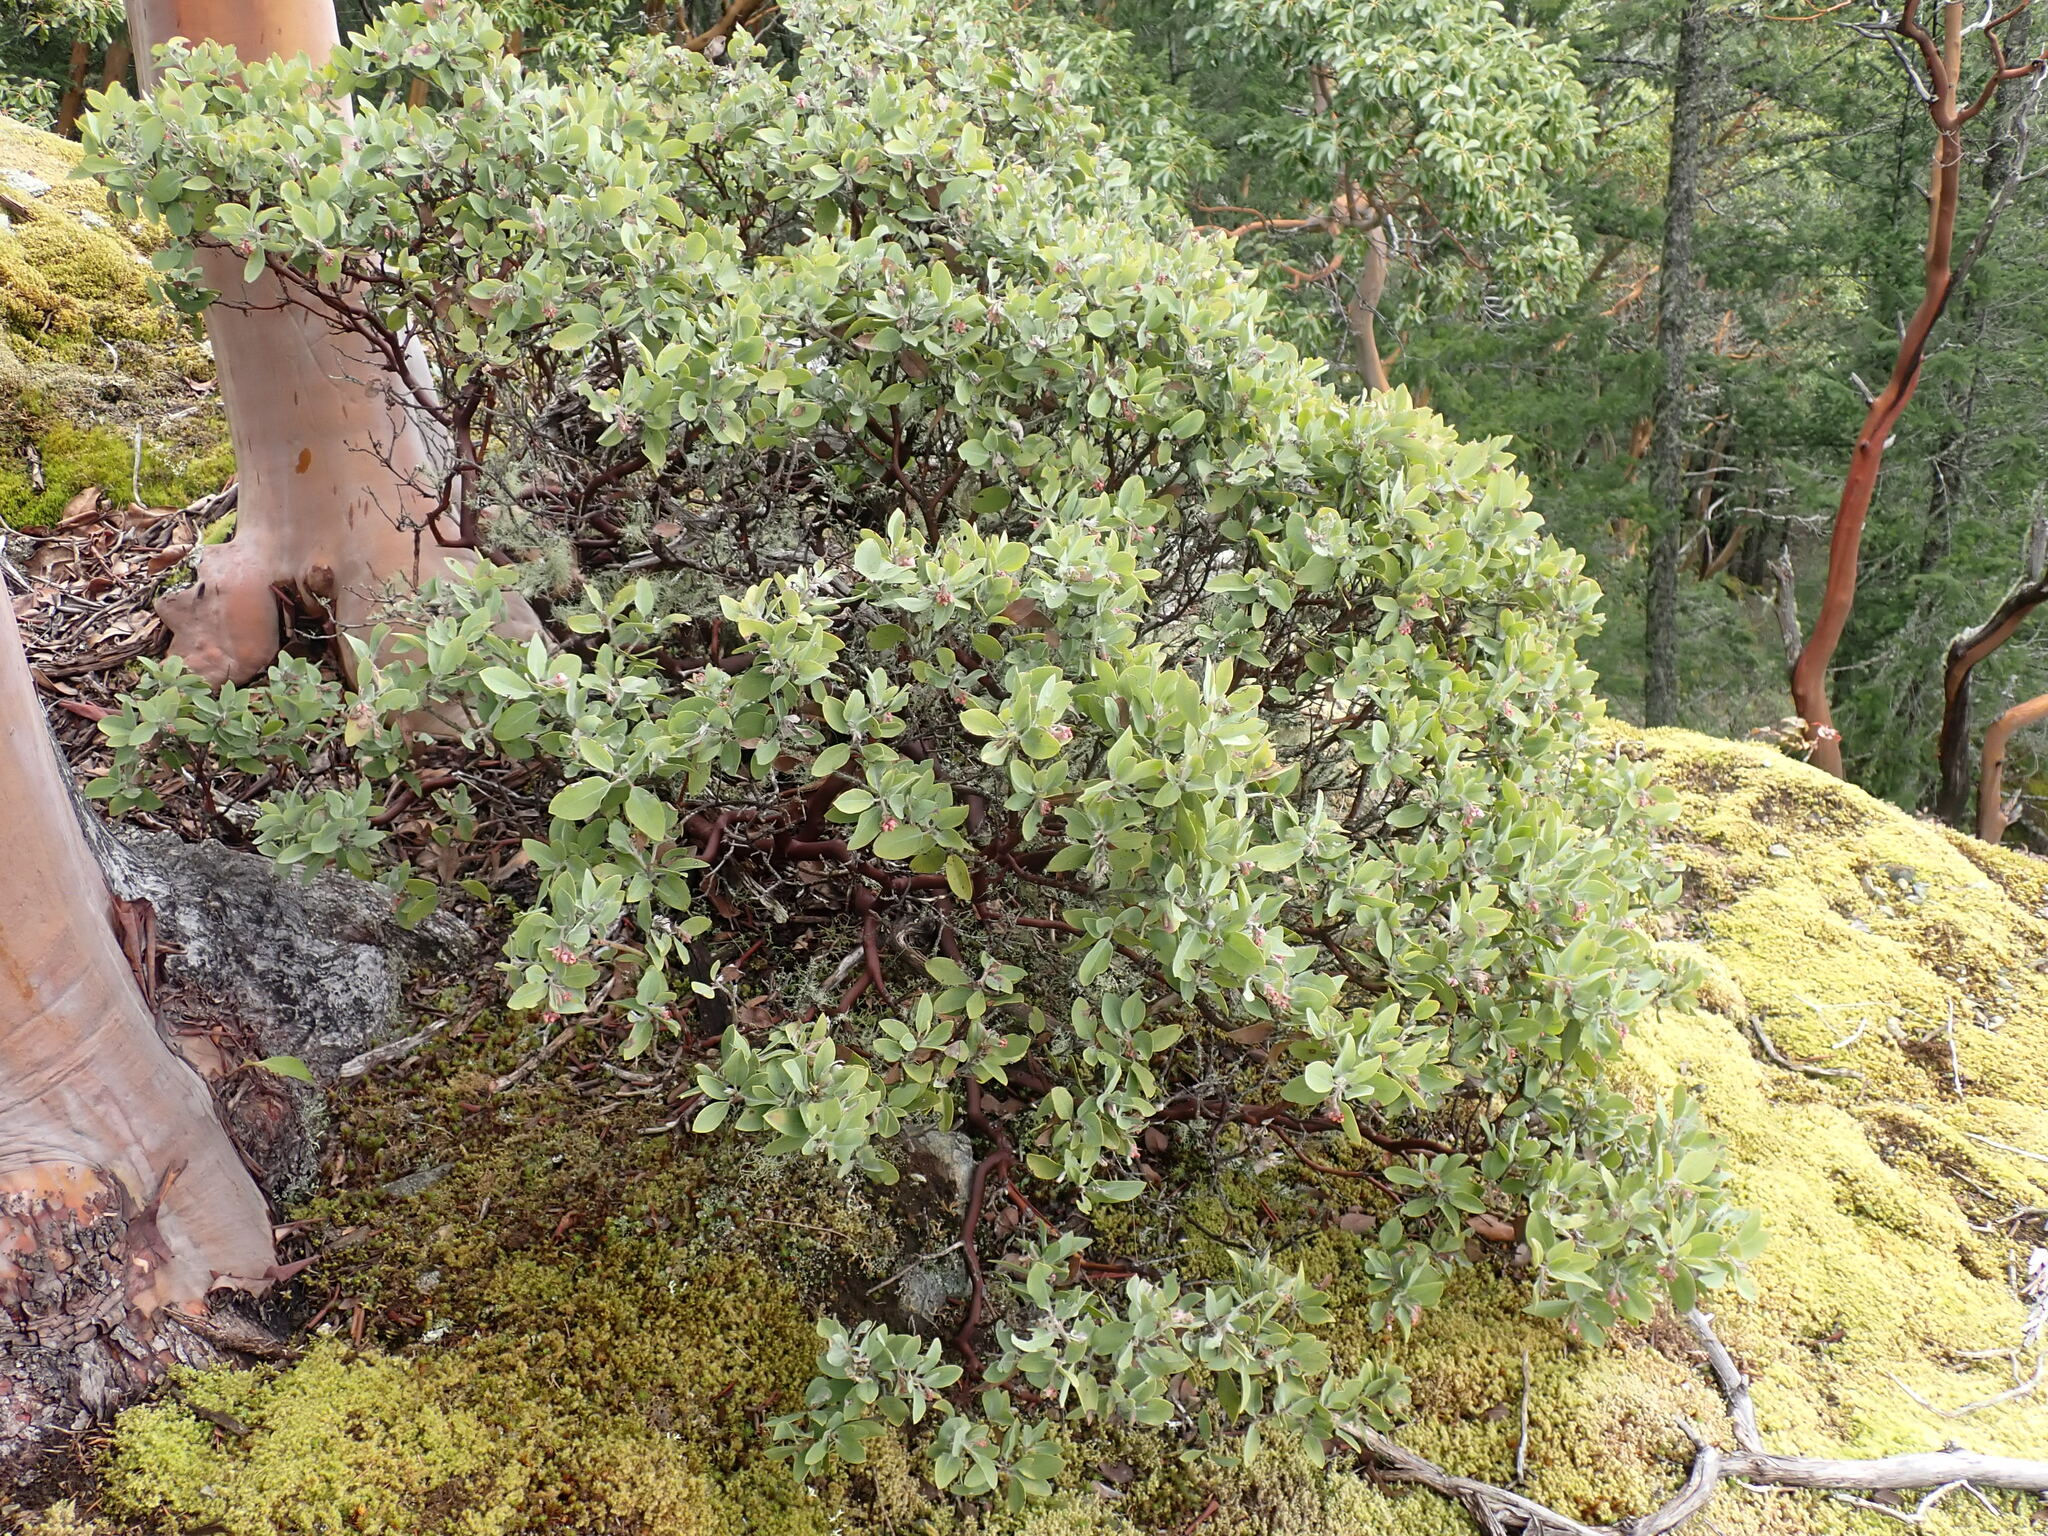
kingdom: Plantae
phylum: Tracheophyta
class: Magnoliopsida
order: Ericales
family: Ericaceae
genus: Arctostaphylos
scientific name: Arctostaphylos columbiana
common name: Bristly bearberry
